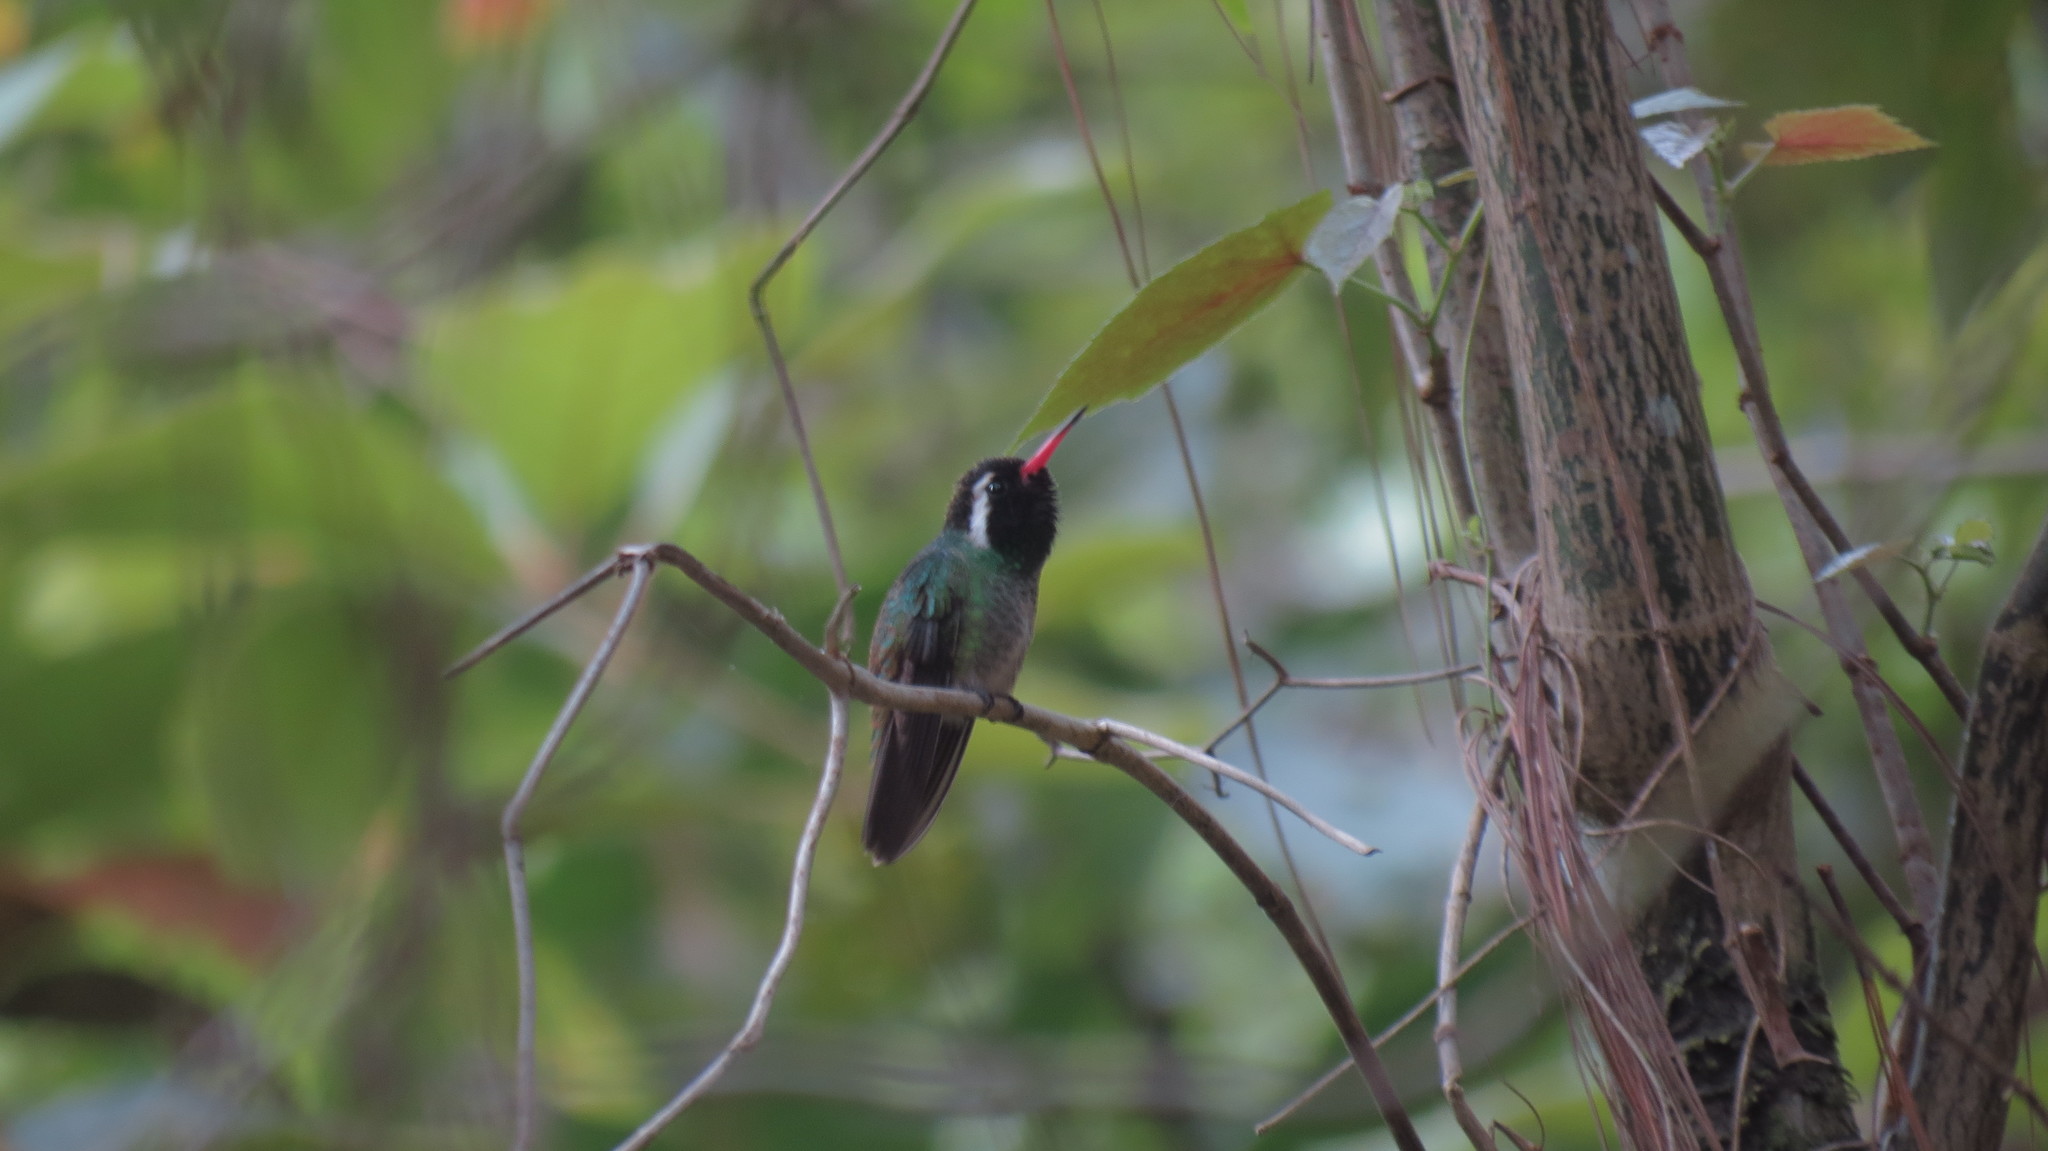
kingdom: Animalia
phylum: Chordata
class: Aves
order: Apodiformes
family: Trochilidae
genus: Basilinna
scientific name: Basilinna leucotis
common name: White-eared hummingbird
